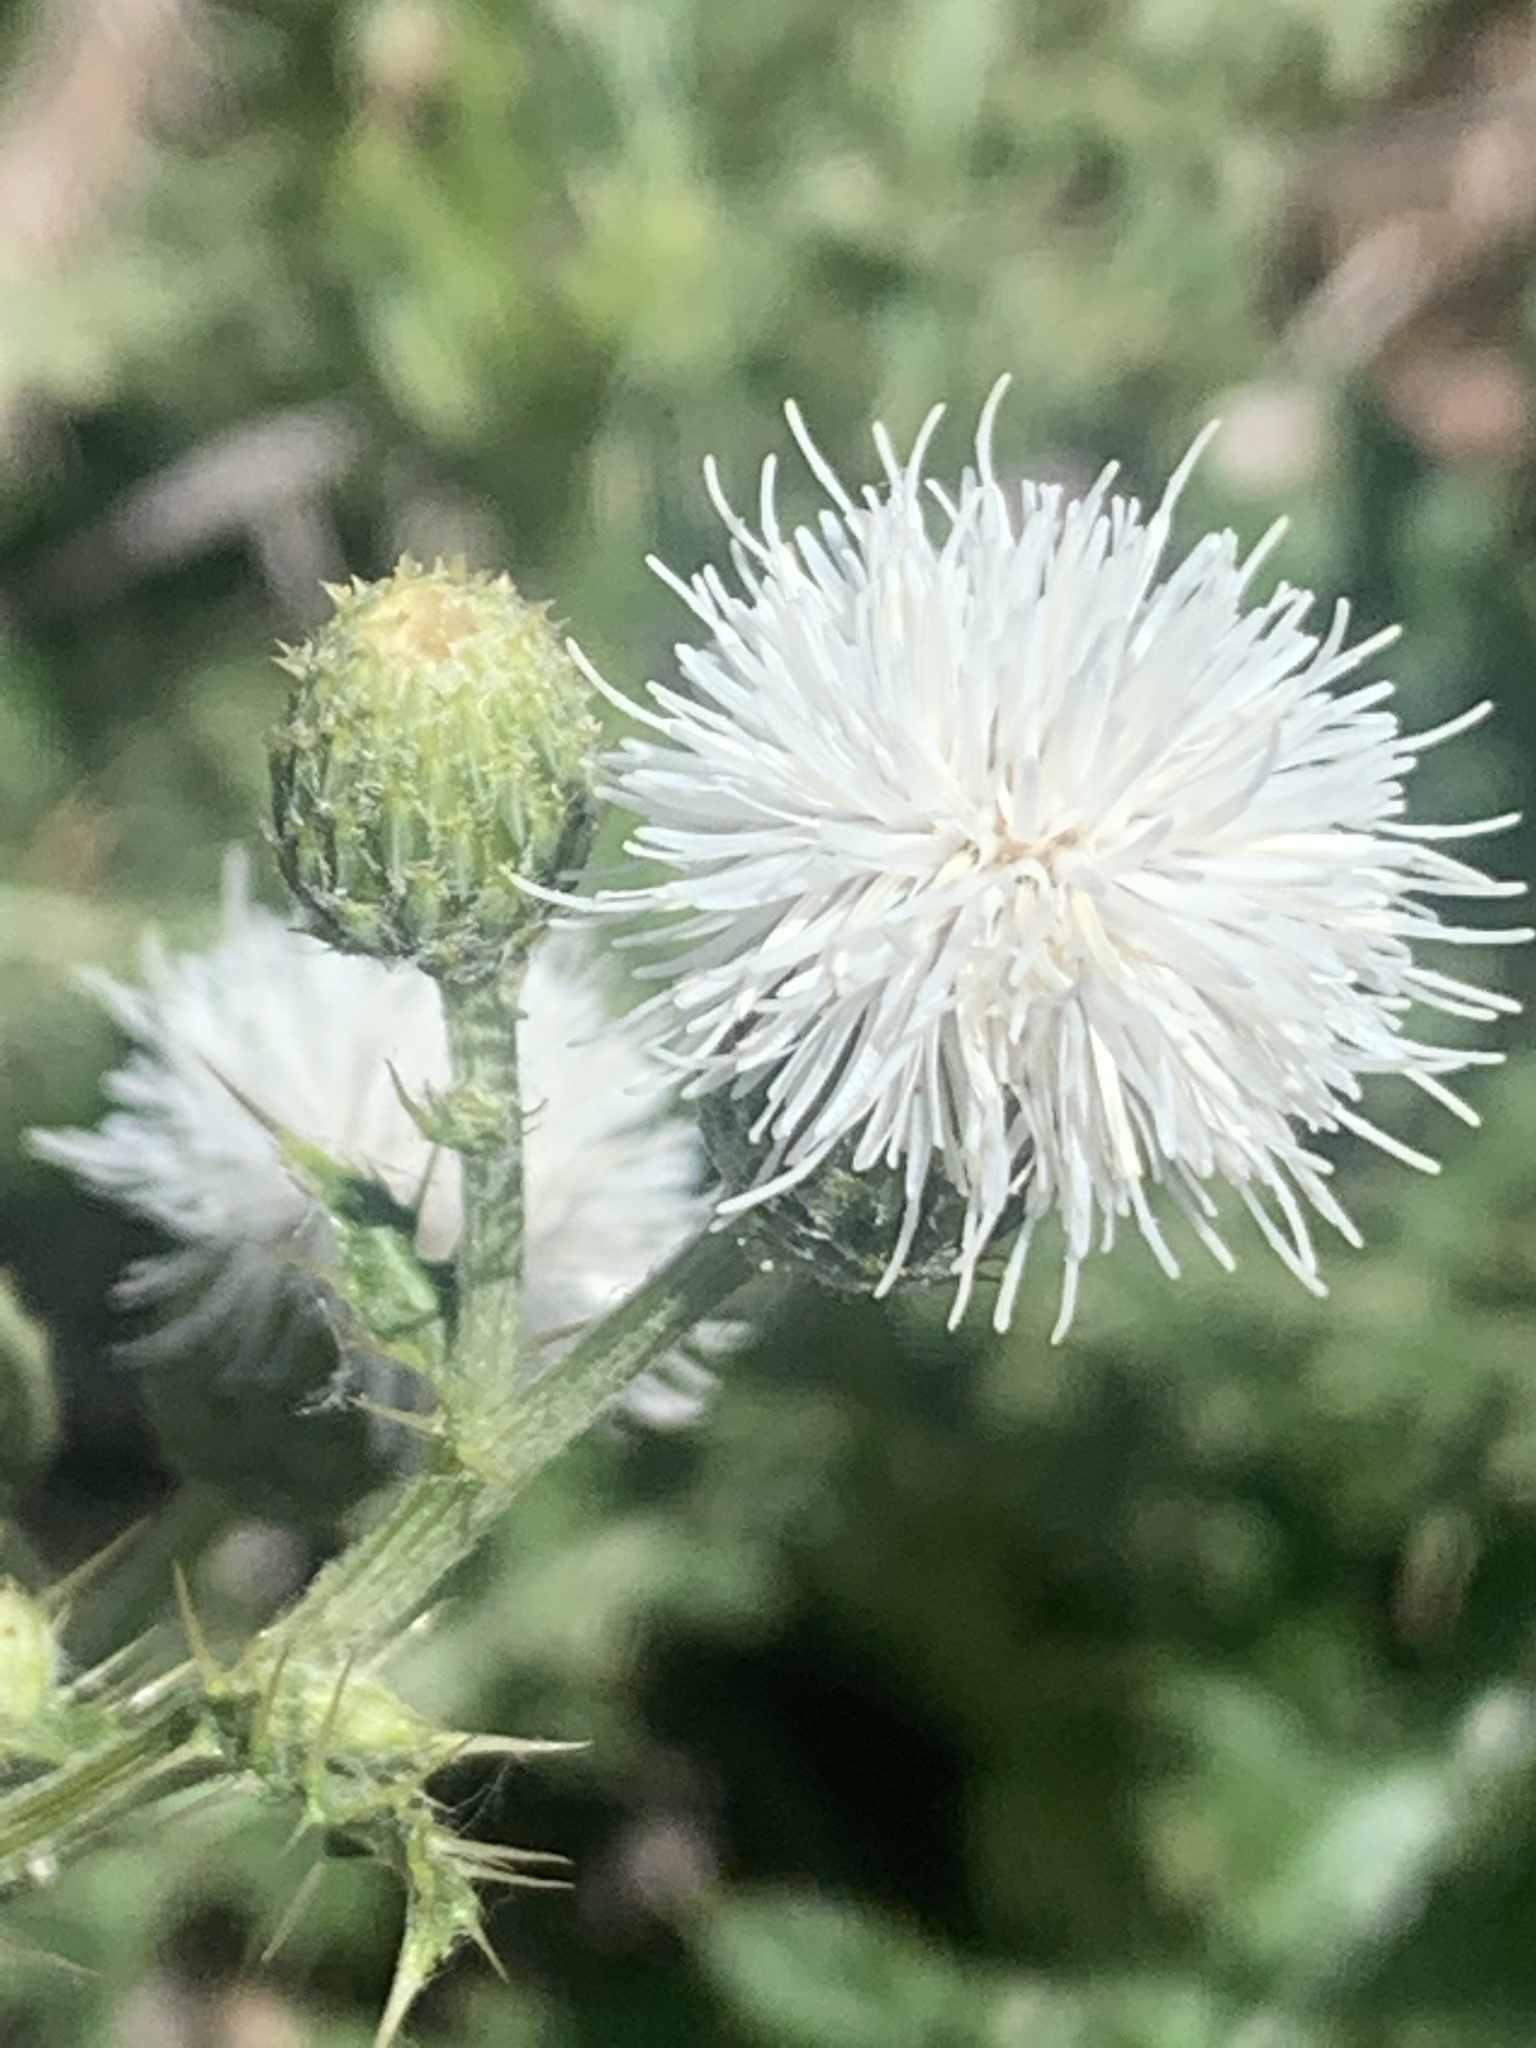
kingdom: Plantae
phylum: Tracheophyta
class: Magnoliopsida
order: Asterales
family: Asteraceae
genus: Cirsium
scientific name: Cirsium arvense
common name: Creeping thistle
